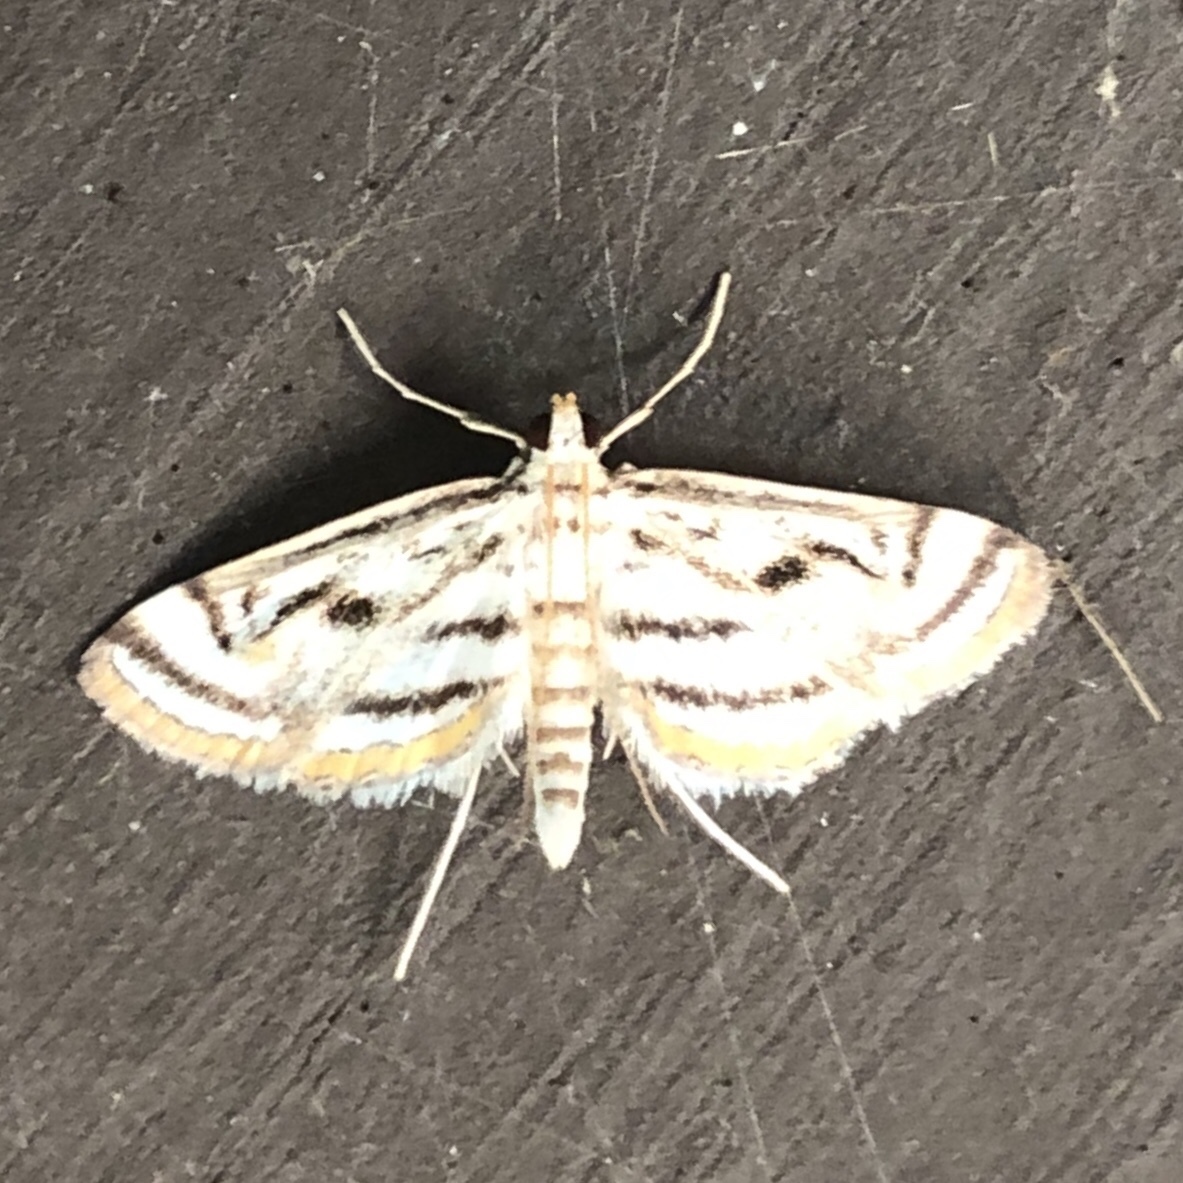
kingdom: Animalia
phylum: Arthropoda
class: Insecta
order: Lepidoptera
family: Crambidae
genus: Parapoynx
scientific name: Parapoynx badiusalis
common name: Chestnut-marked pondweed moth
